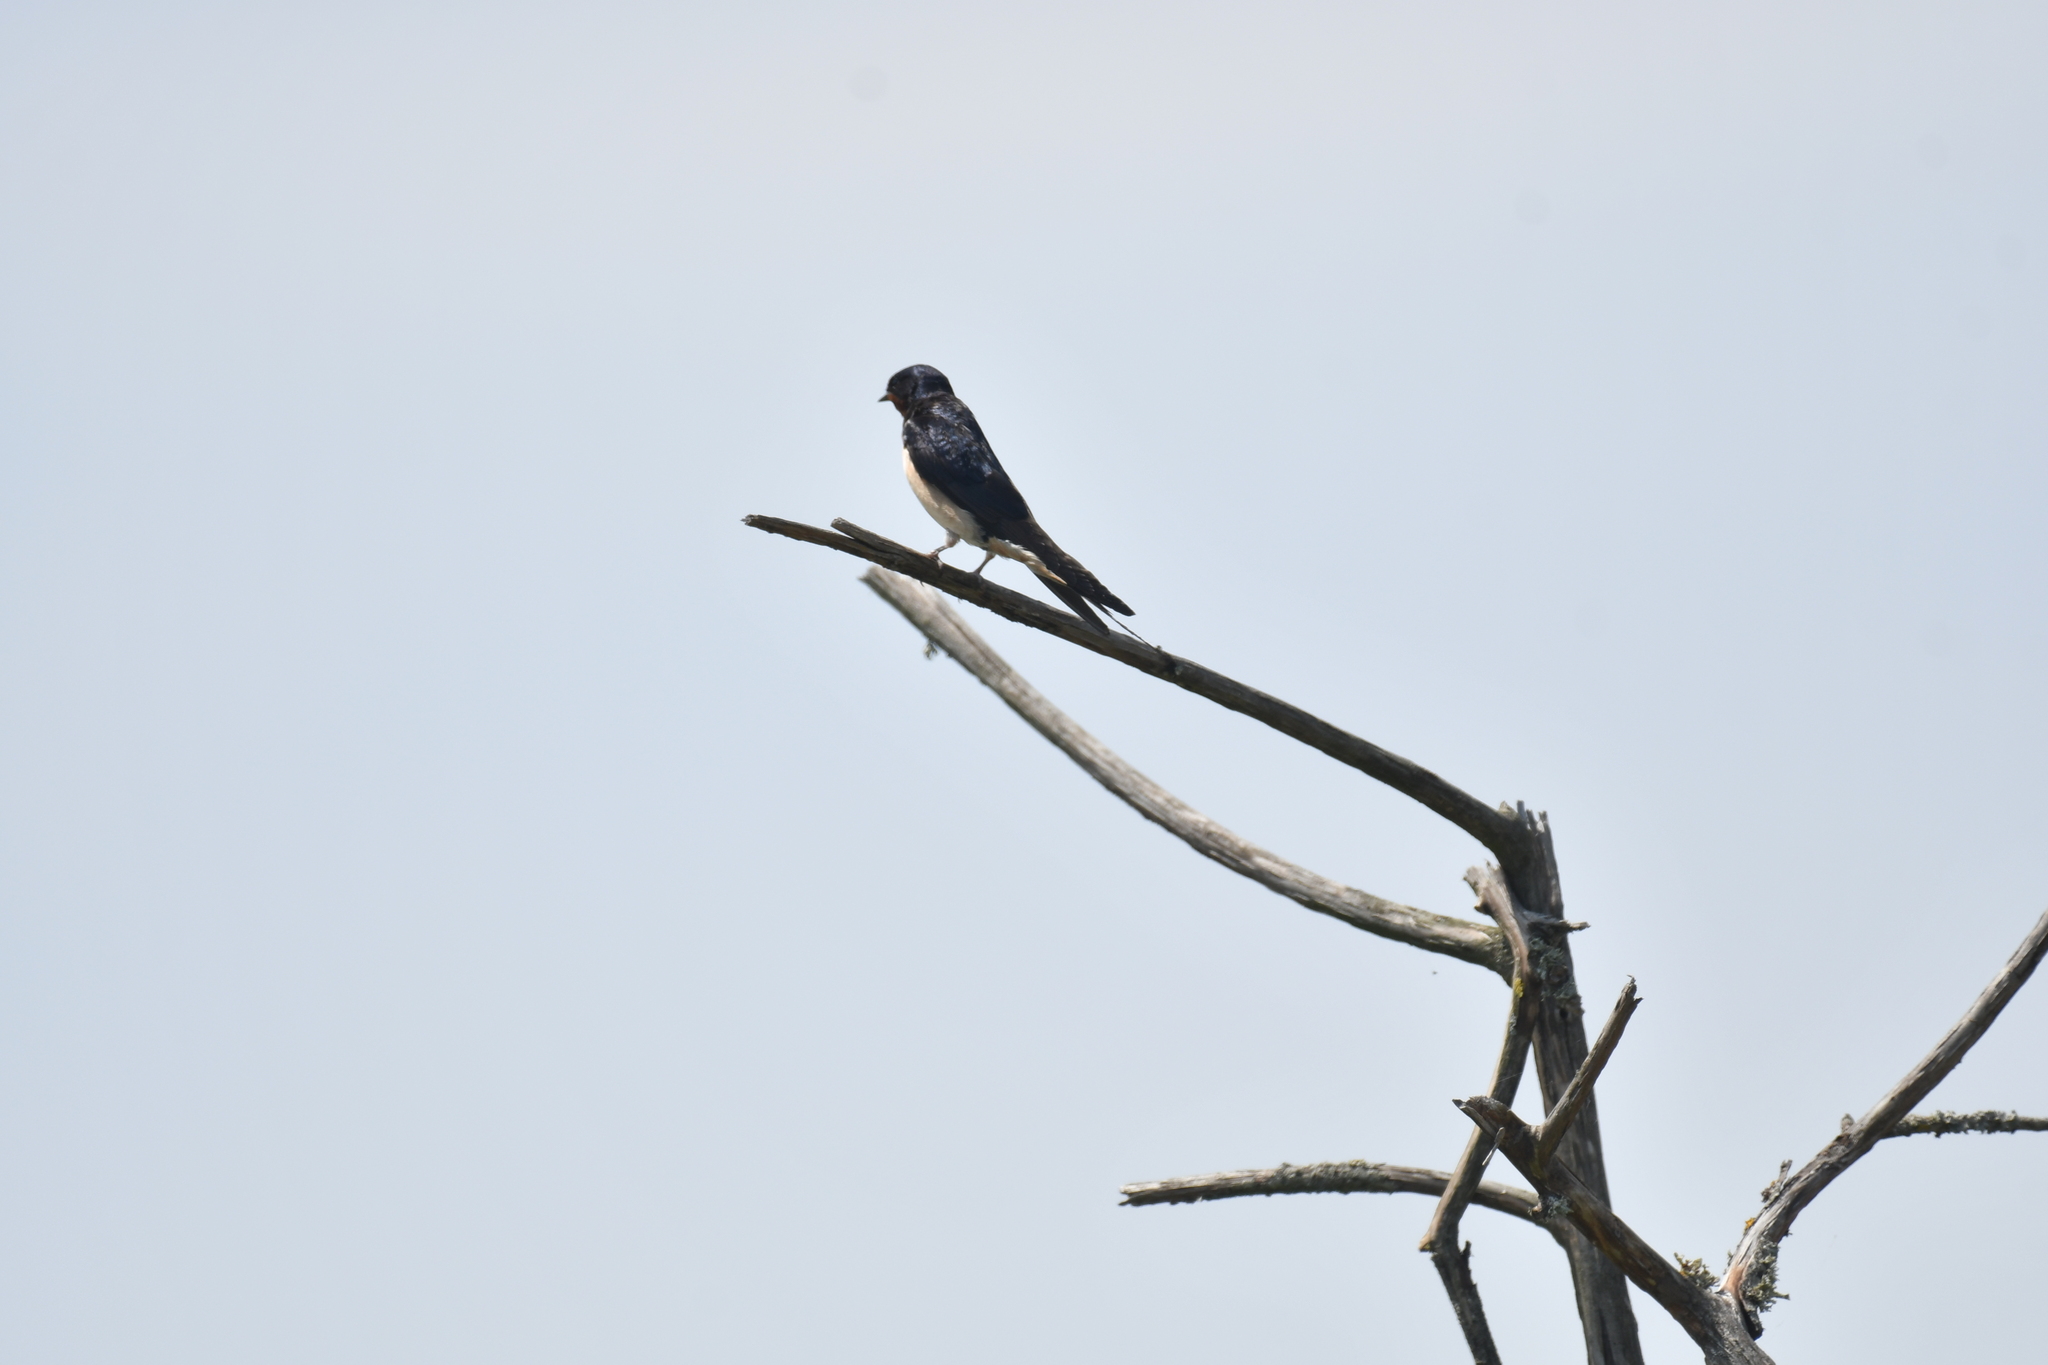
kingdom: Animalia
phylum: Chordata
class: Aves
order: Passeriformes
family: Hirundinidae
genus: Hirundo
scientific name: Hirundo rustica
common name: Barn swallow
